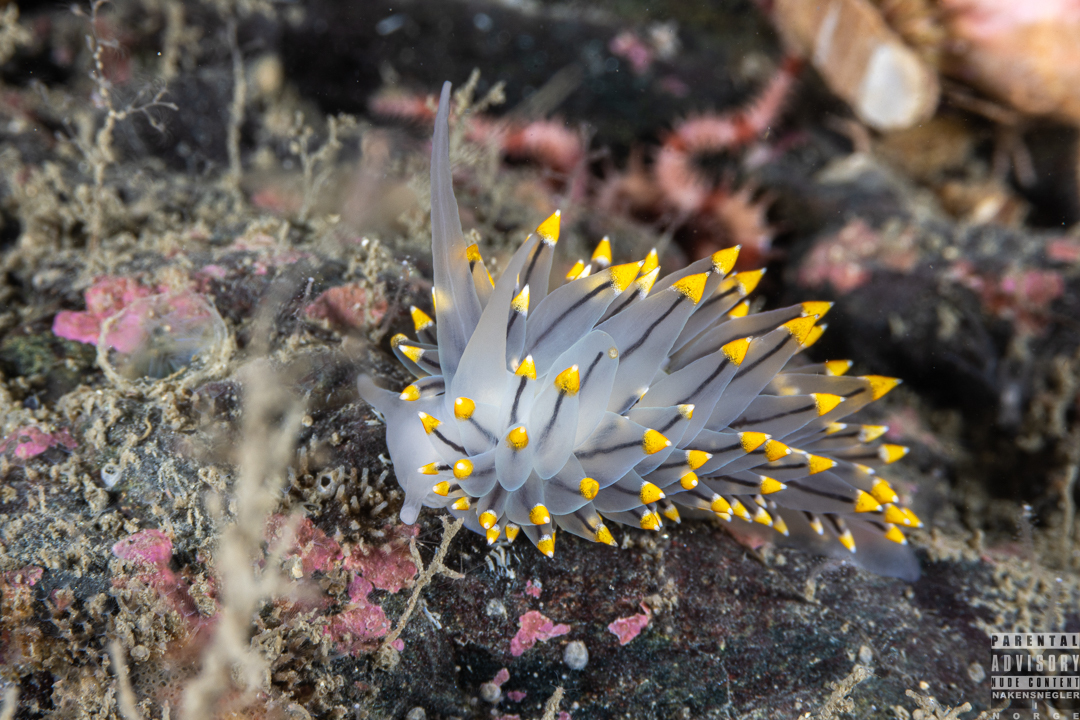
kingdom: Animalia
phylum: Mollusca
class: Gastropoda
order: Nudibranchia
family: Eubranchidae
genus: Eubranchus
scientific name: Eubranchus tricolor
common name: Painted balloon aeolis
